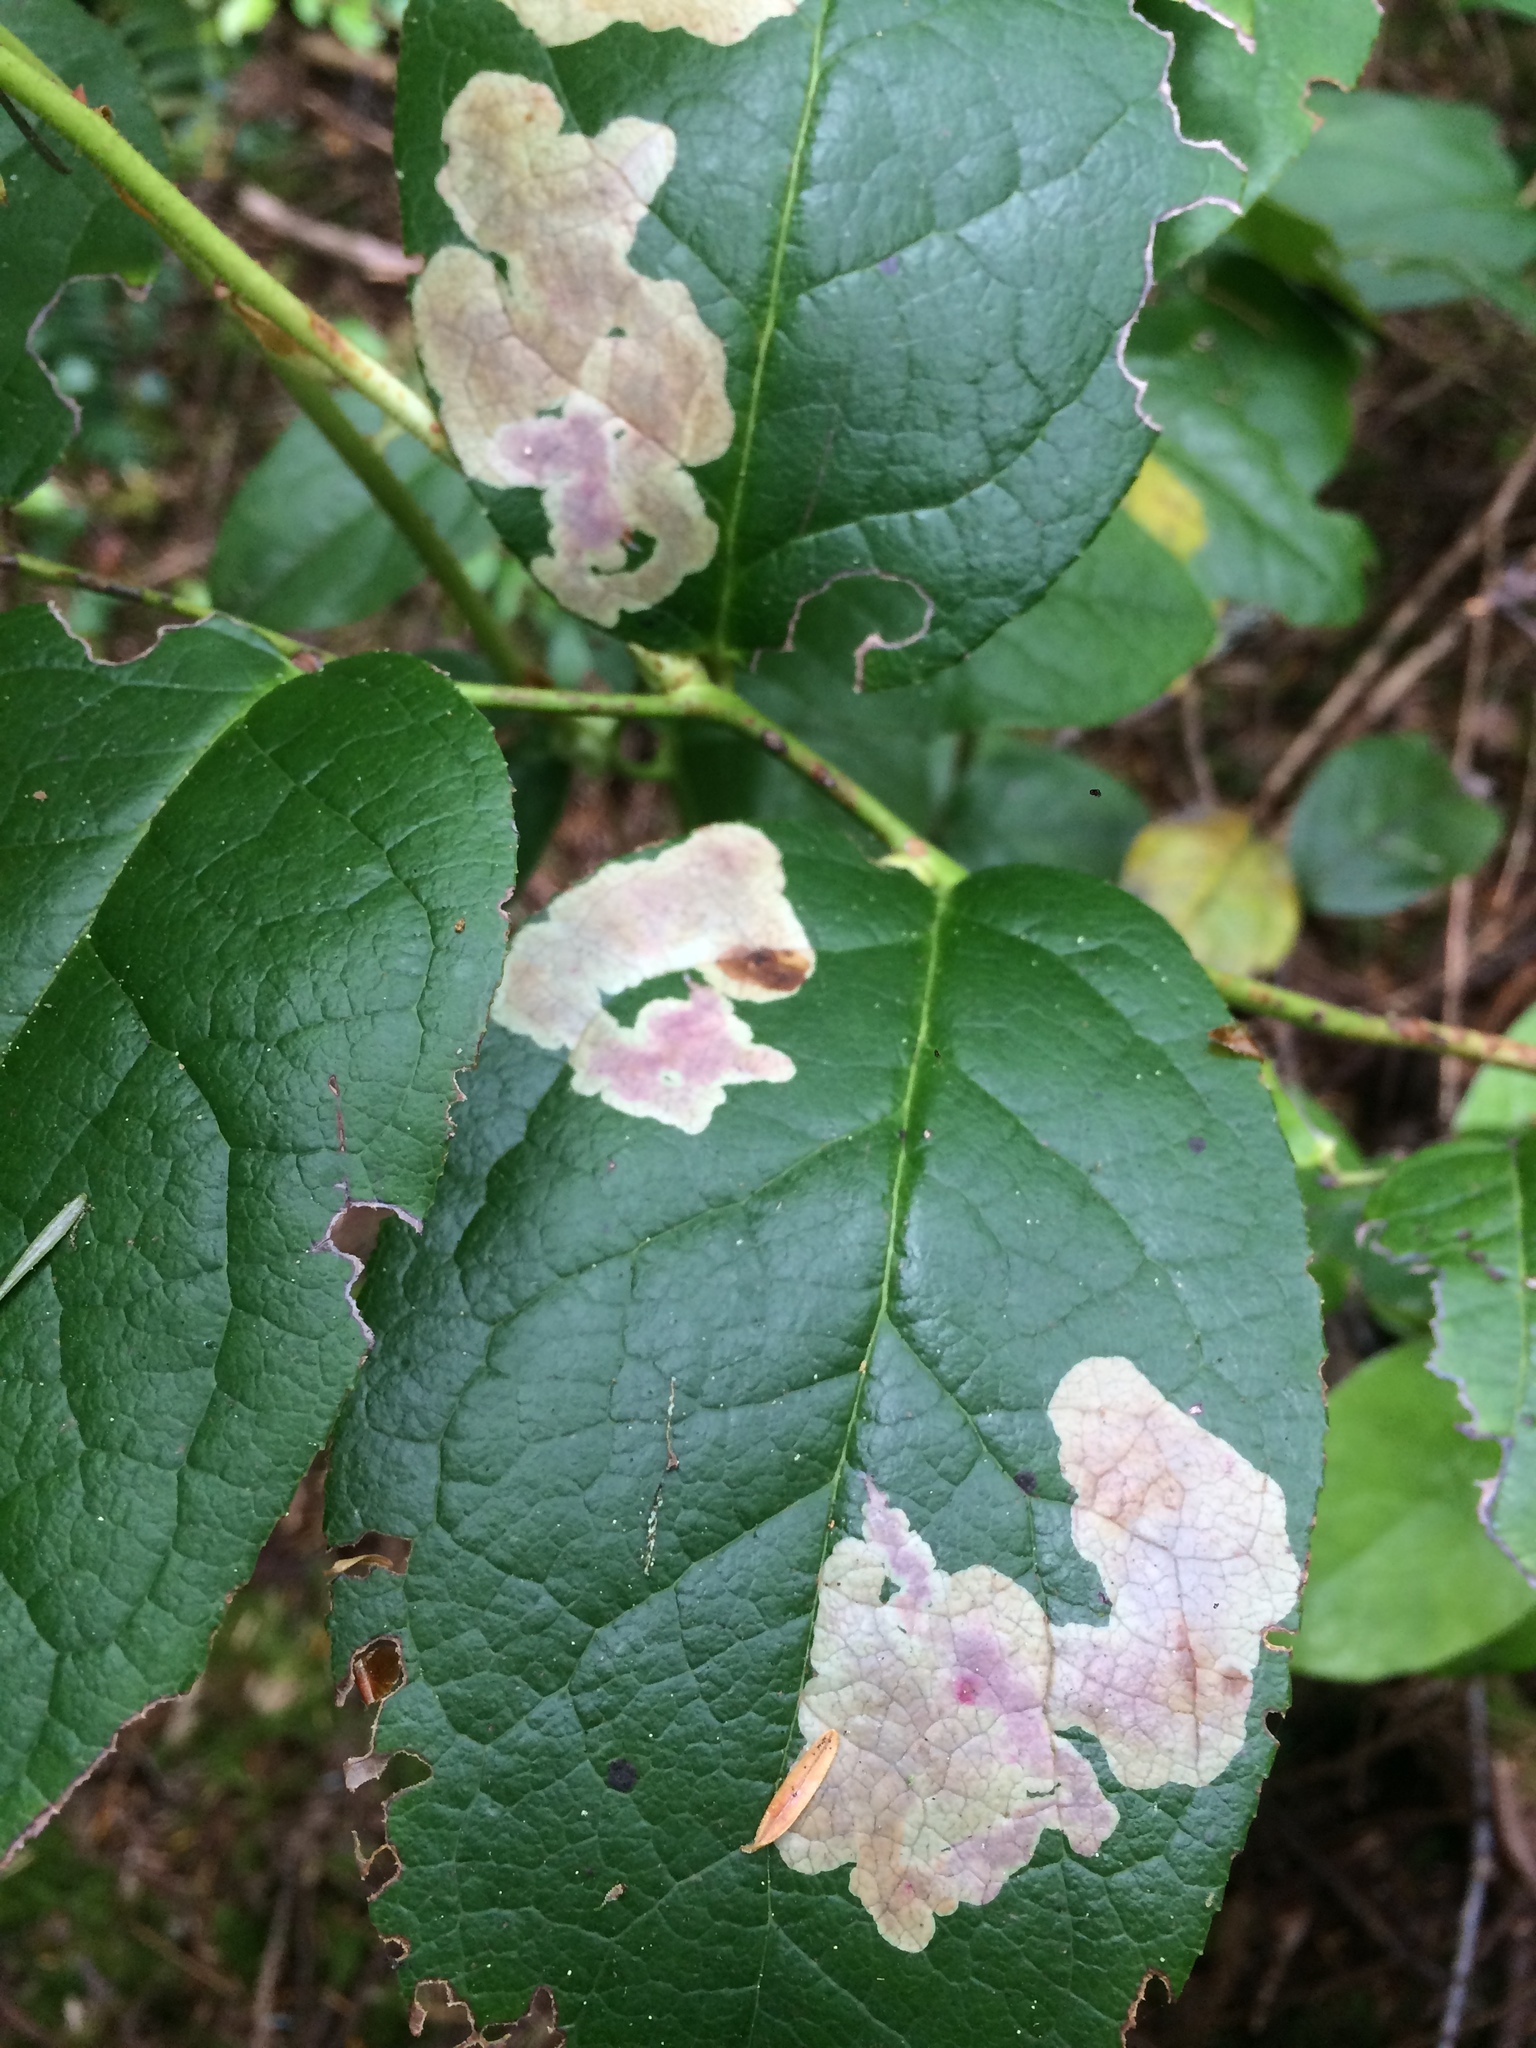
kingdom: Animalia
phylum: Arthropoda
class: Insecta
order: Lepidoptera
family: Gracillariidae
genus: Cameraria
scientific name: Cameraria gaultheriella
